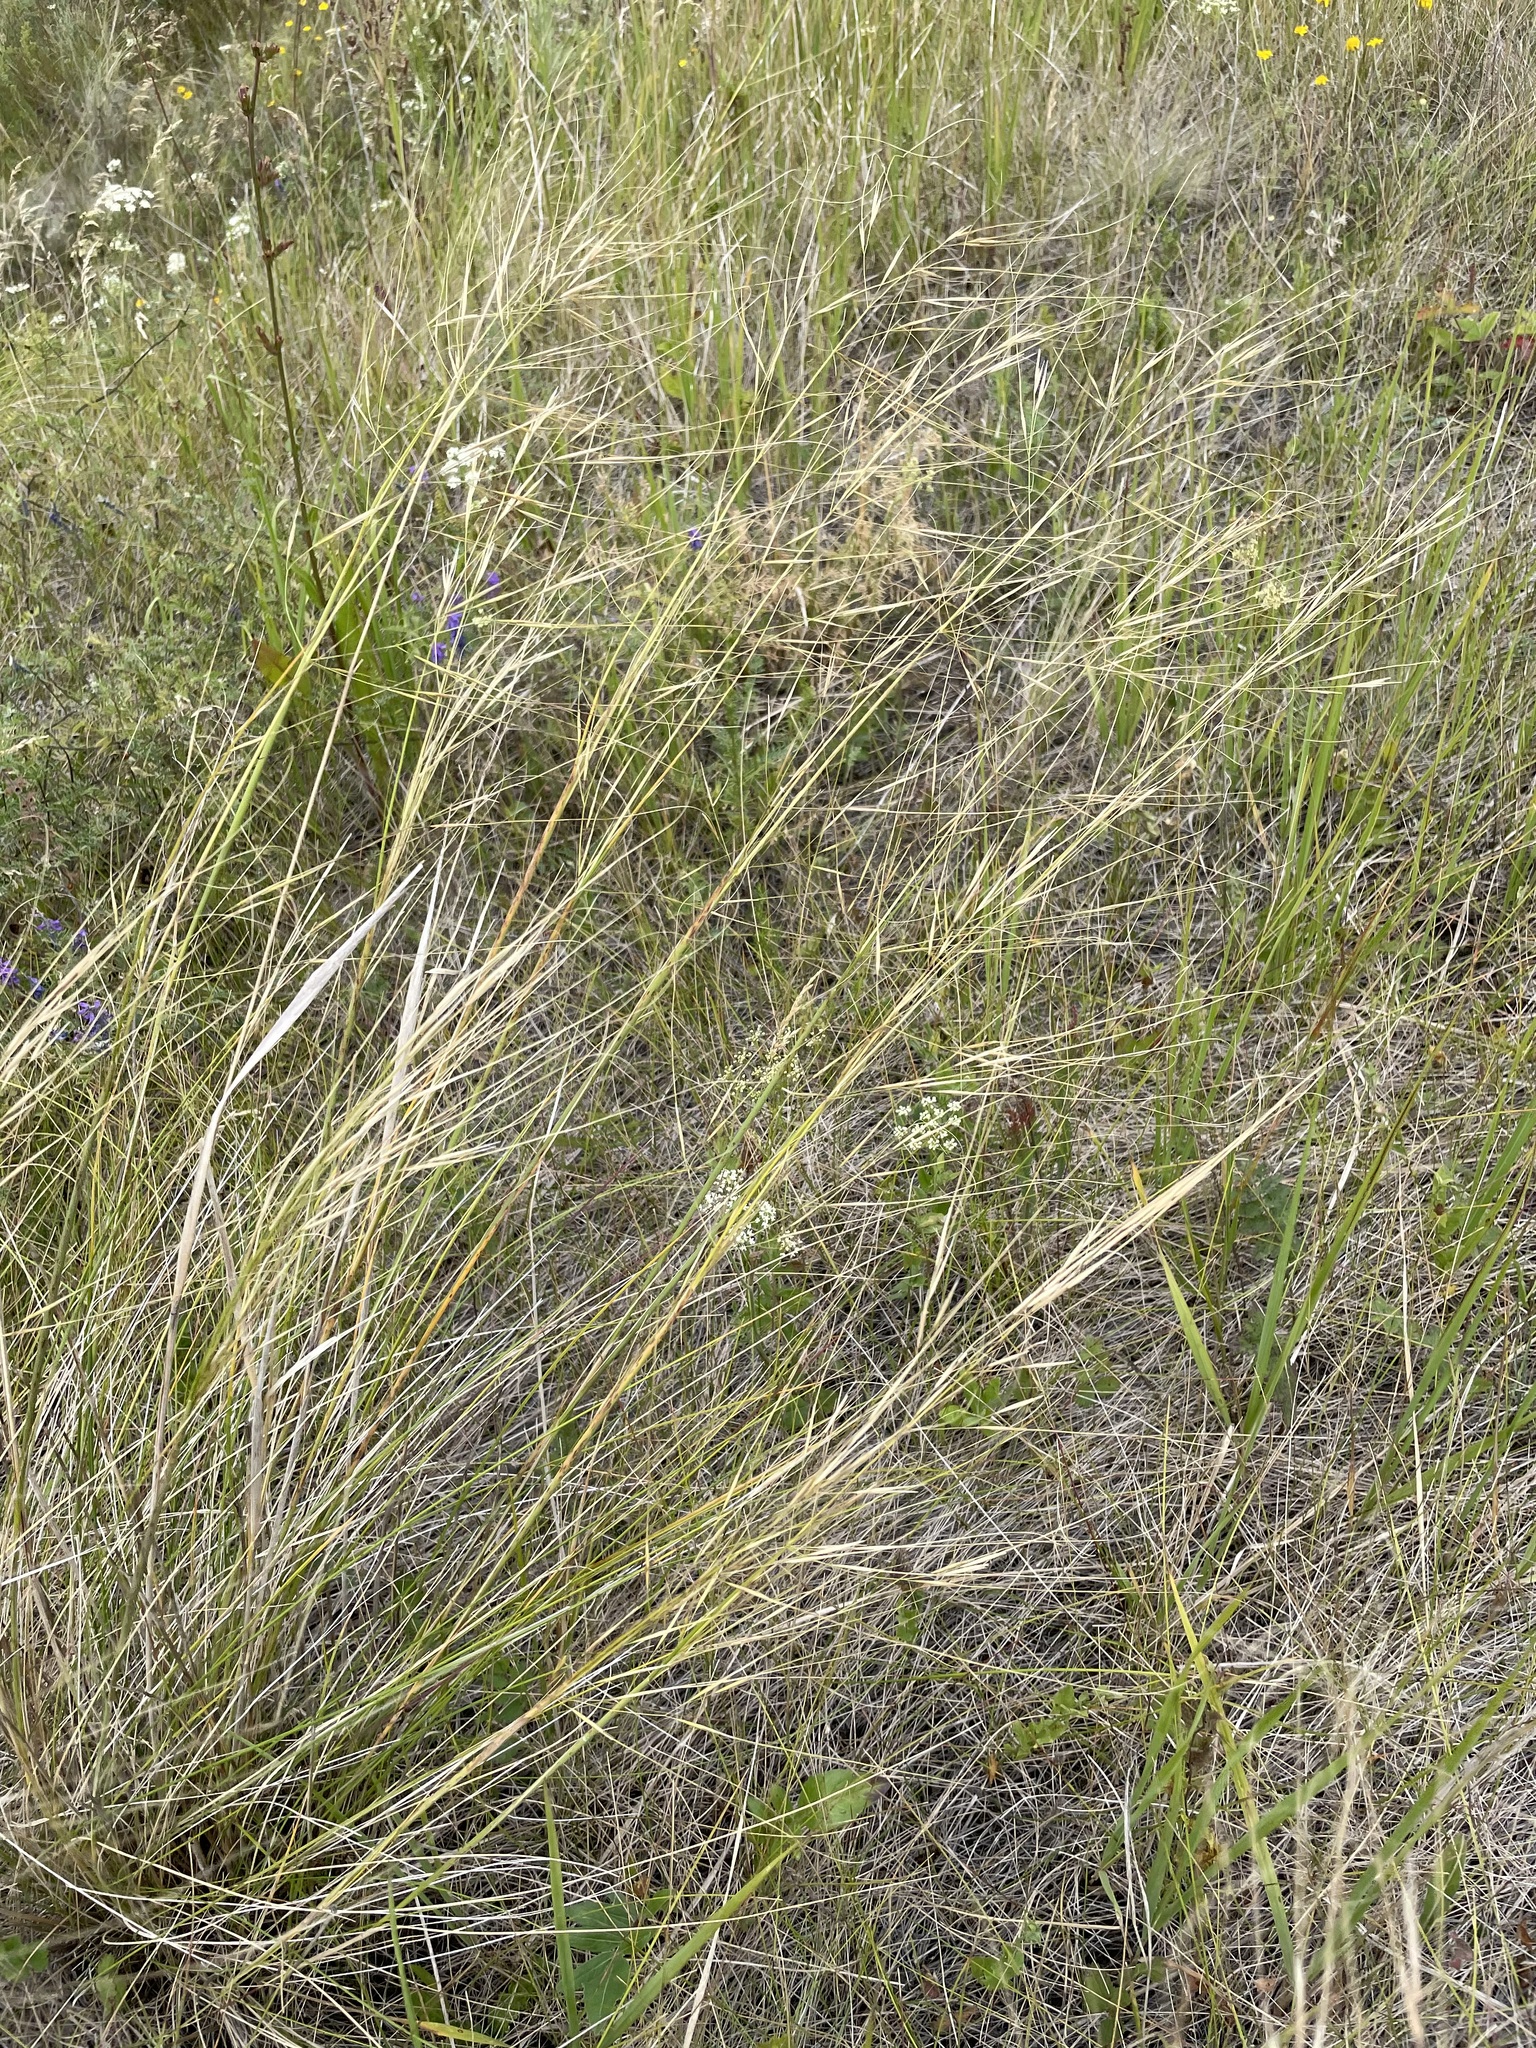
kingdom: Plantae
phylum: Tracheophyta
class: Liliopsida
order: Poales
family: Poaceae
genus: Stipa
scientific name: Stipa capillata
